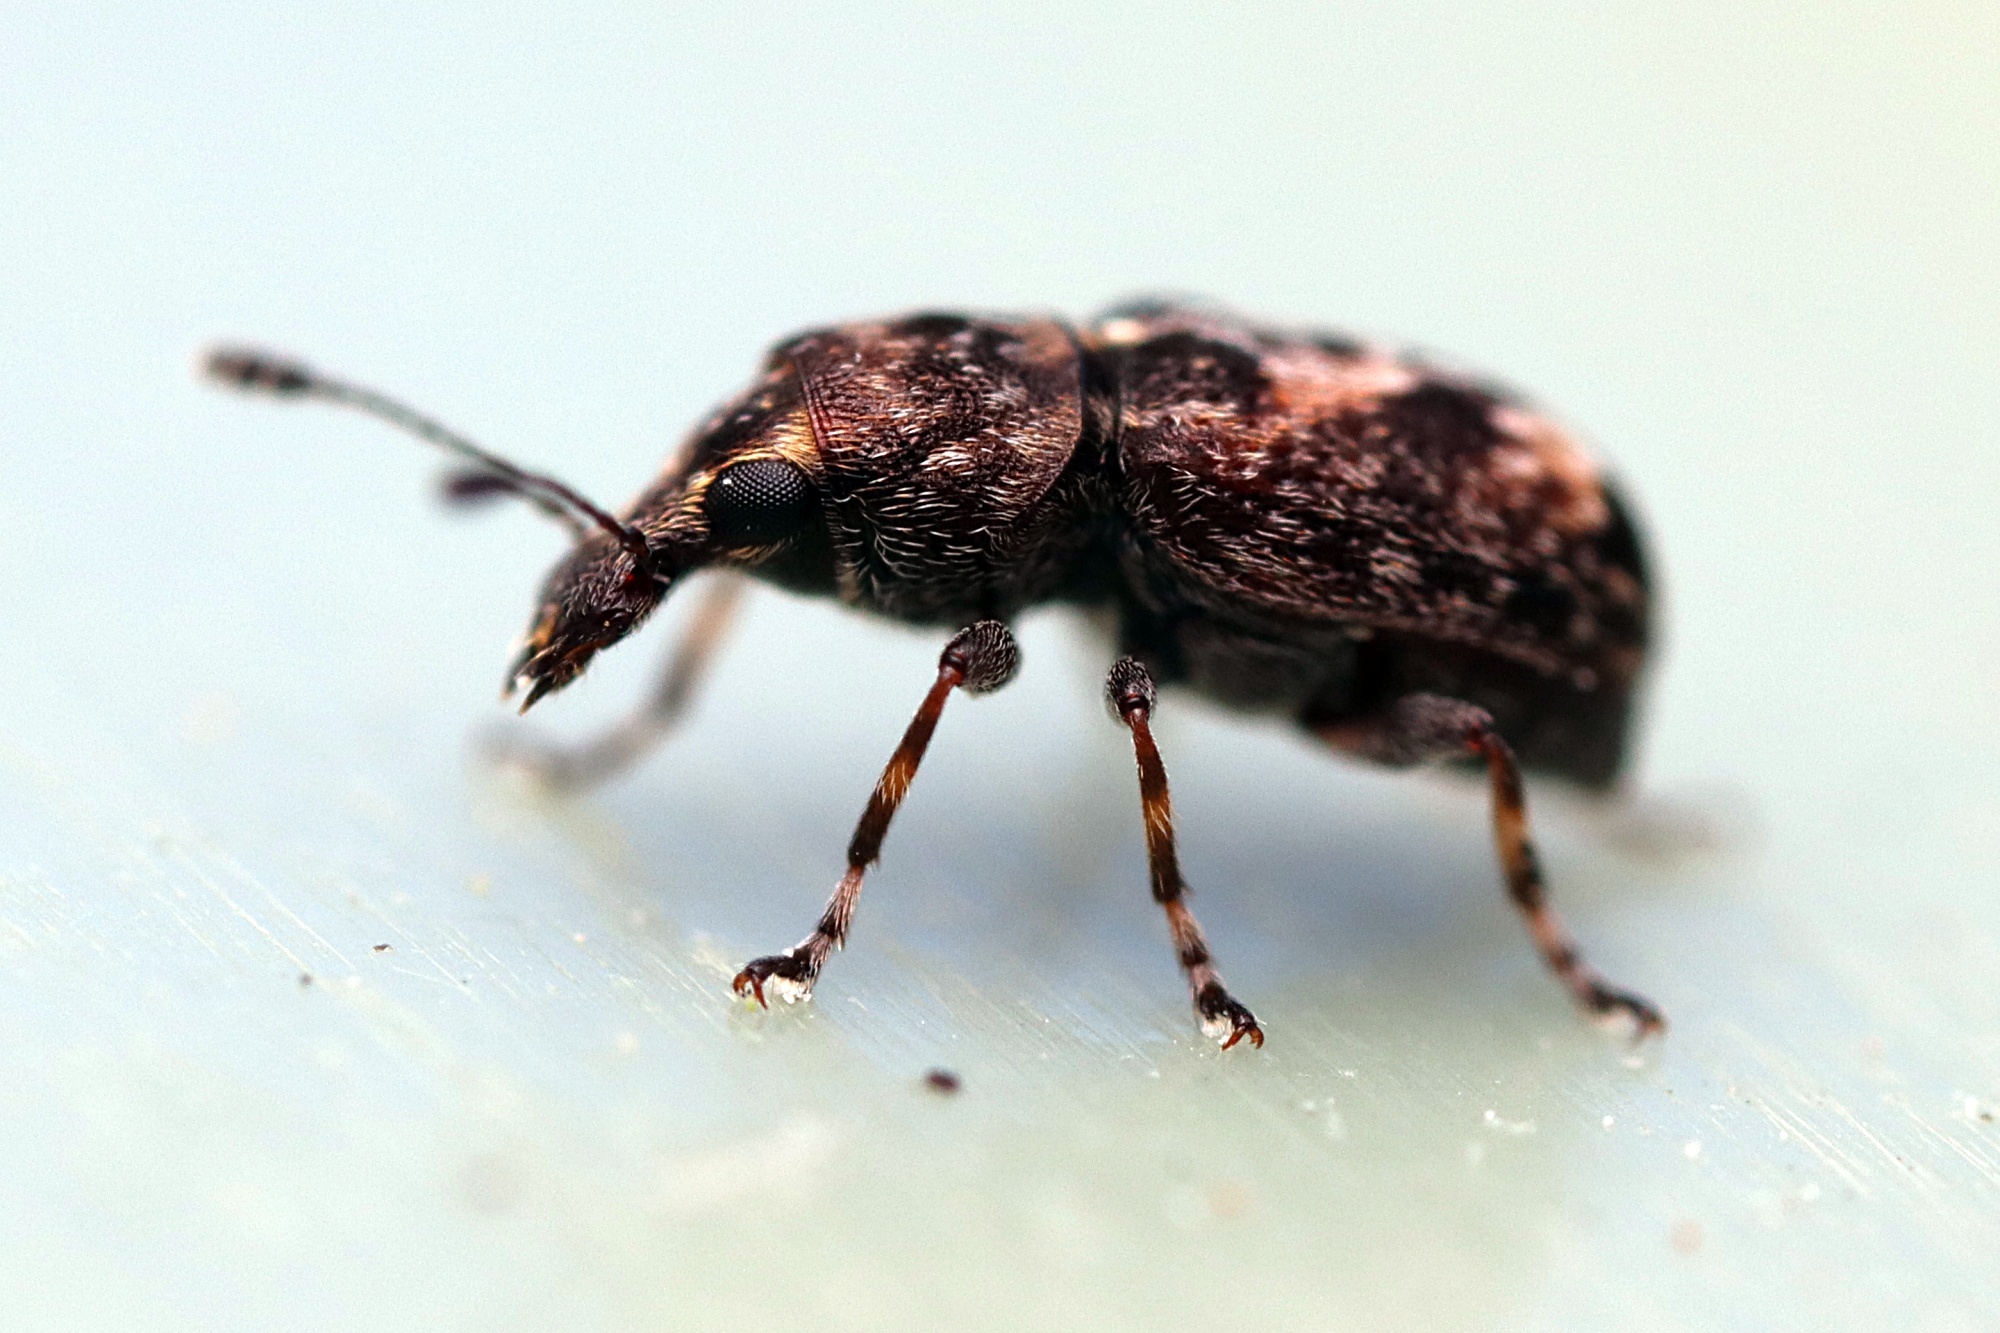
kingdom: Animalia
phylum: Arthropoda
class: Insecta
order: Coleoptera
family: Anthribidae
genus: Sharpius
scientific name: Sharpius
